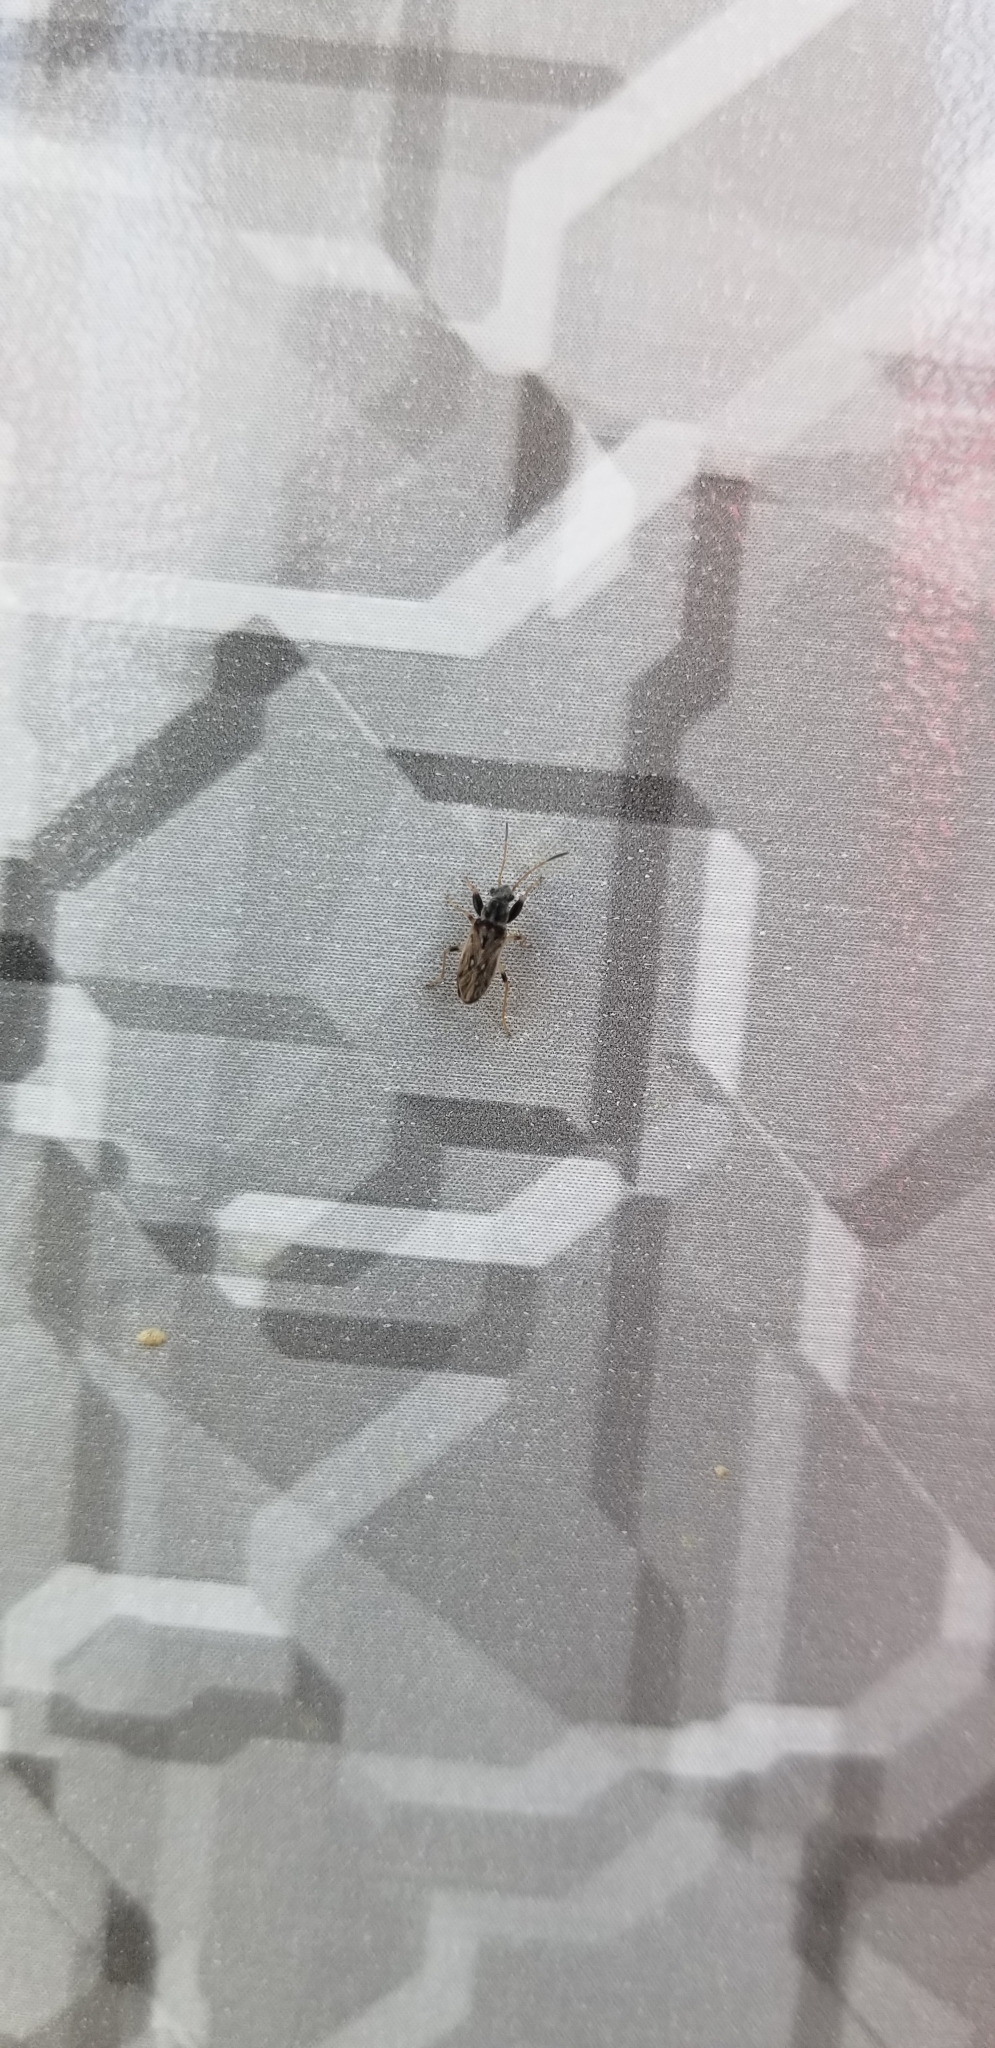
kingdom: Animalia
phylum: Arthropoda
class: Insecta
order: Hemiptera
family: Rhyparochromidae
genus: Pseudopachybrachius
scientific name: Pseudopachybrachius basalis
